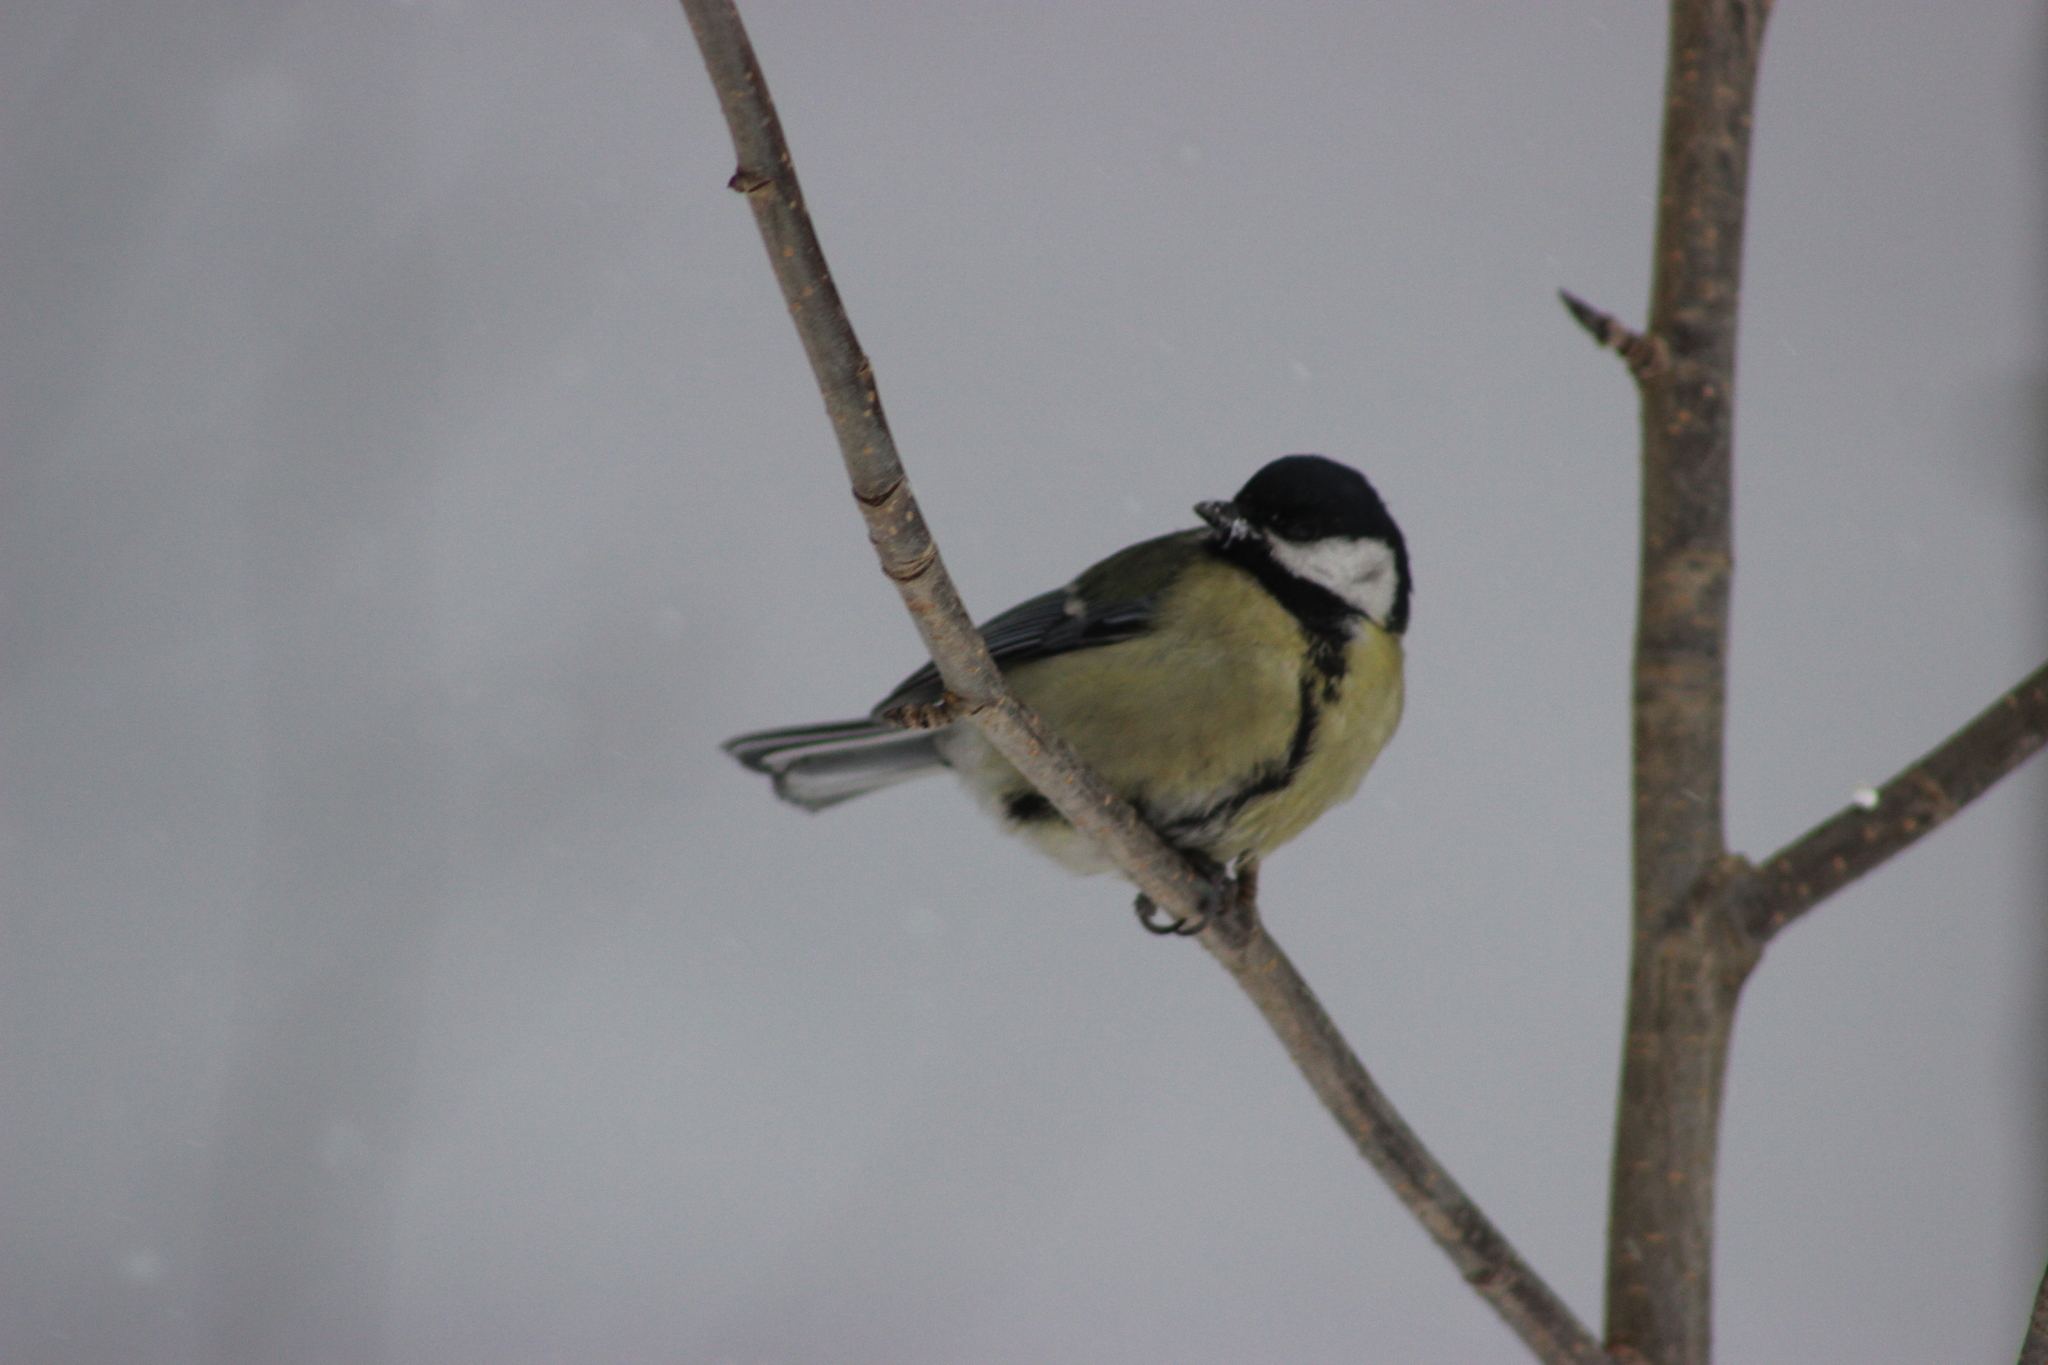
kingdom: Animalia
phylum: Chordata
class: Aves
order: Passeriformes
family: Paridae
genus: Parus
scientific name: Parus major
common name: Great tit
